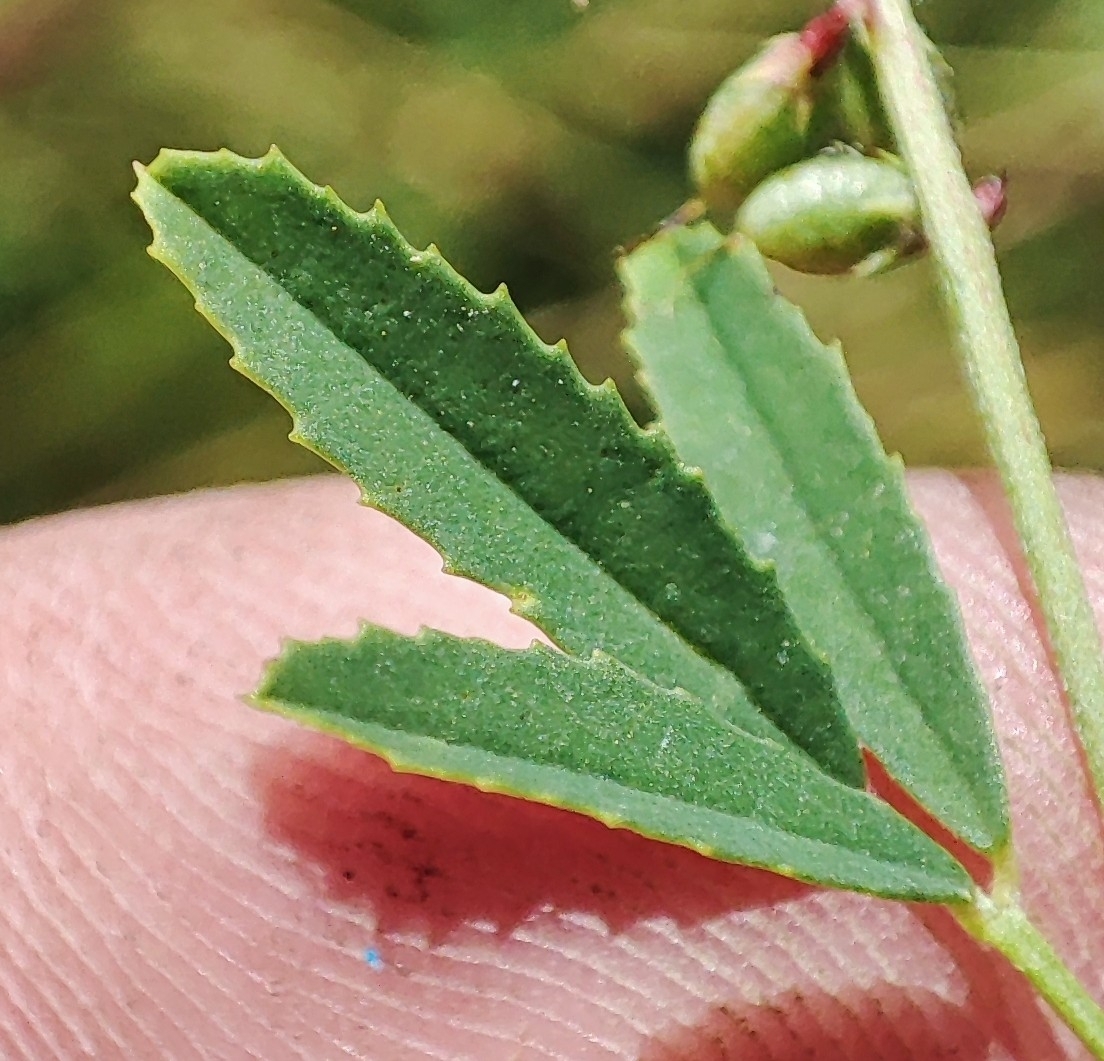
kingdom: Plantae
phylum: Tracheophyta
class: Magnoliopsida
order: Fabales
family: Fabaceae
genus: Melilotus
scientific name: Melilotus officinalis
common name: Sweetclover
